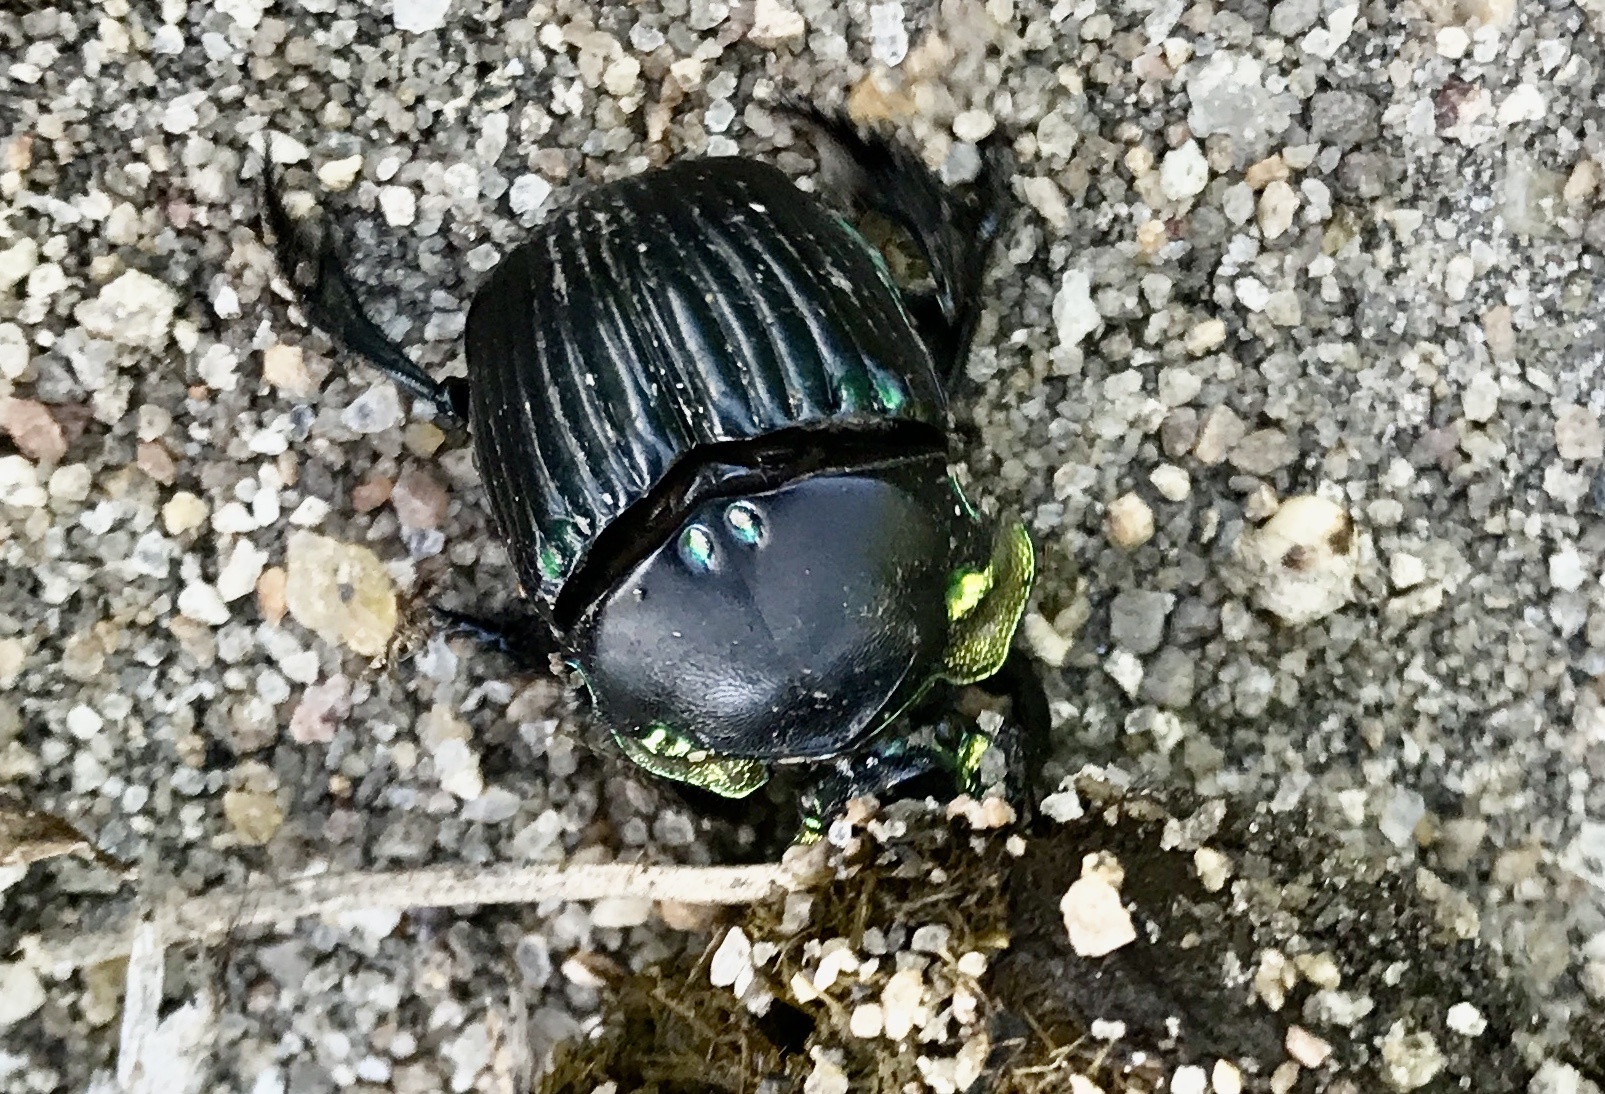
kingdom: Animalia
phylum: Arthropoda
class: Insecta
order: Coleoptera
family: Scarabaeidae
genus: Diabroctis
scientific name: Diabroctis mimas
